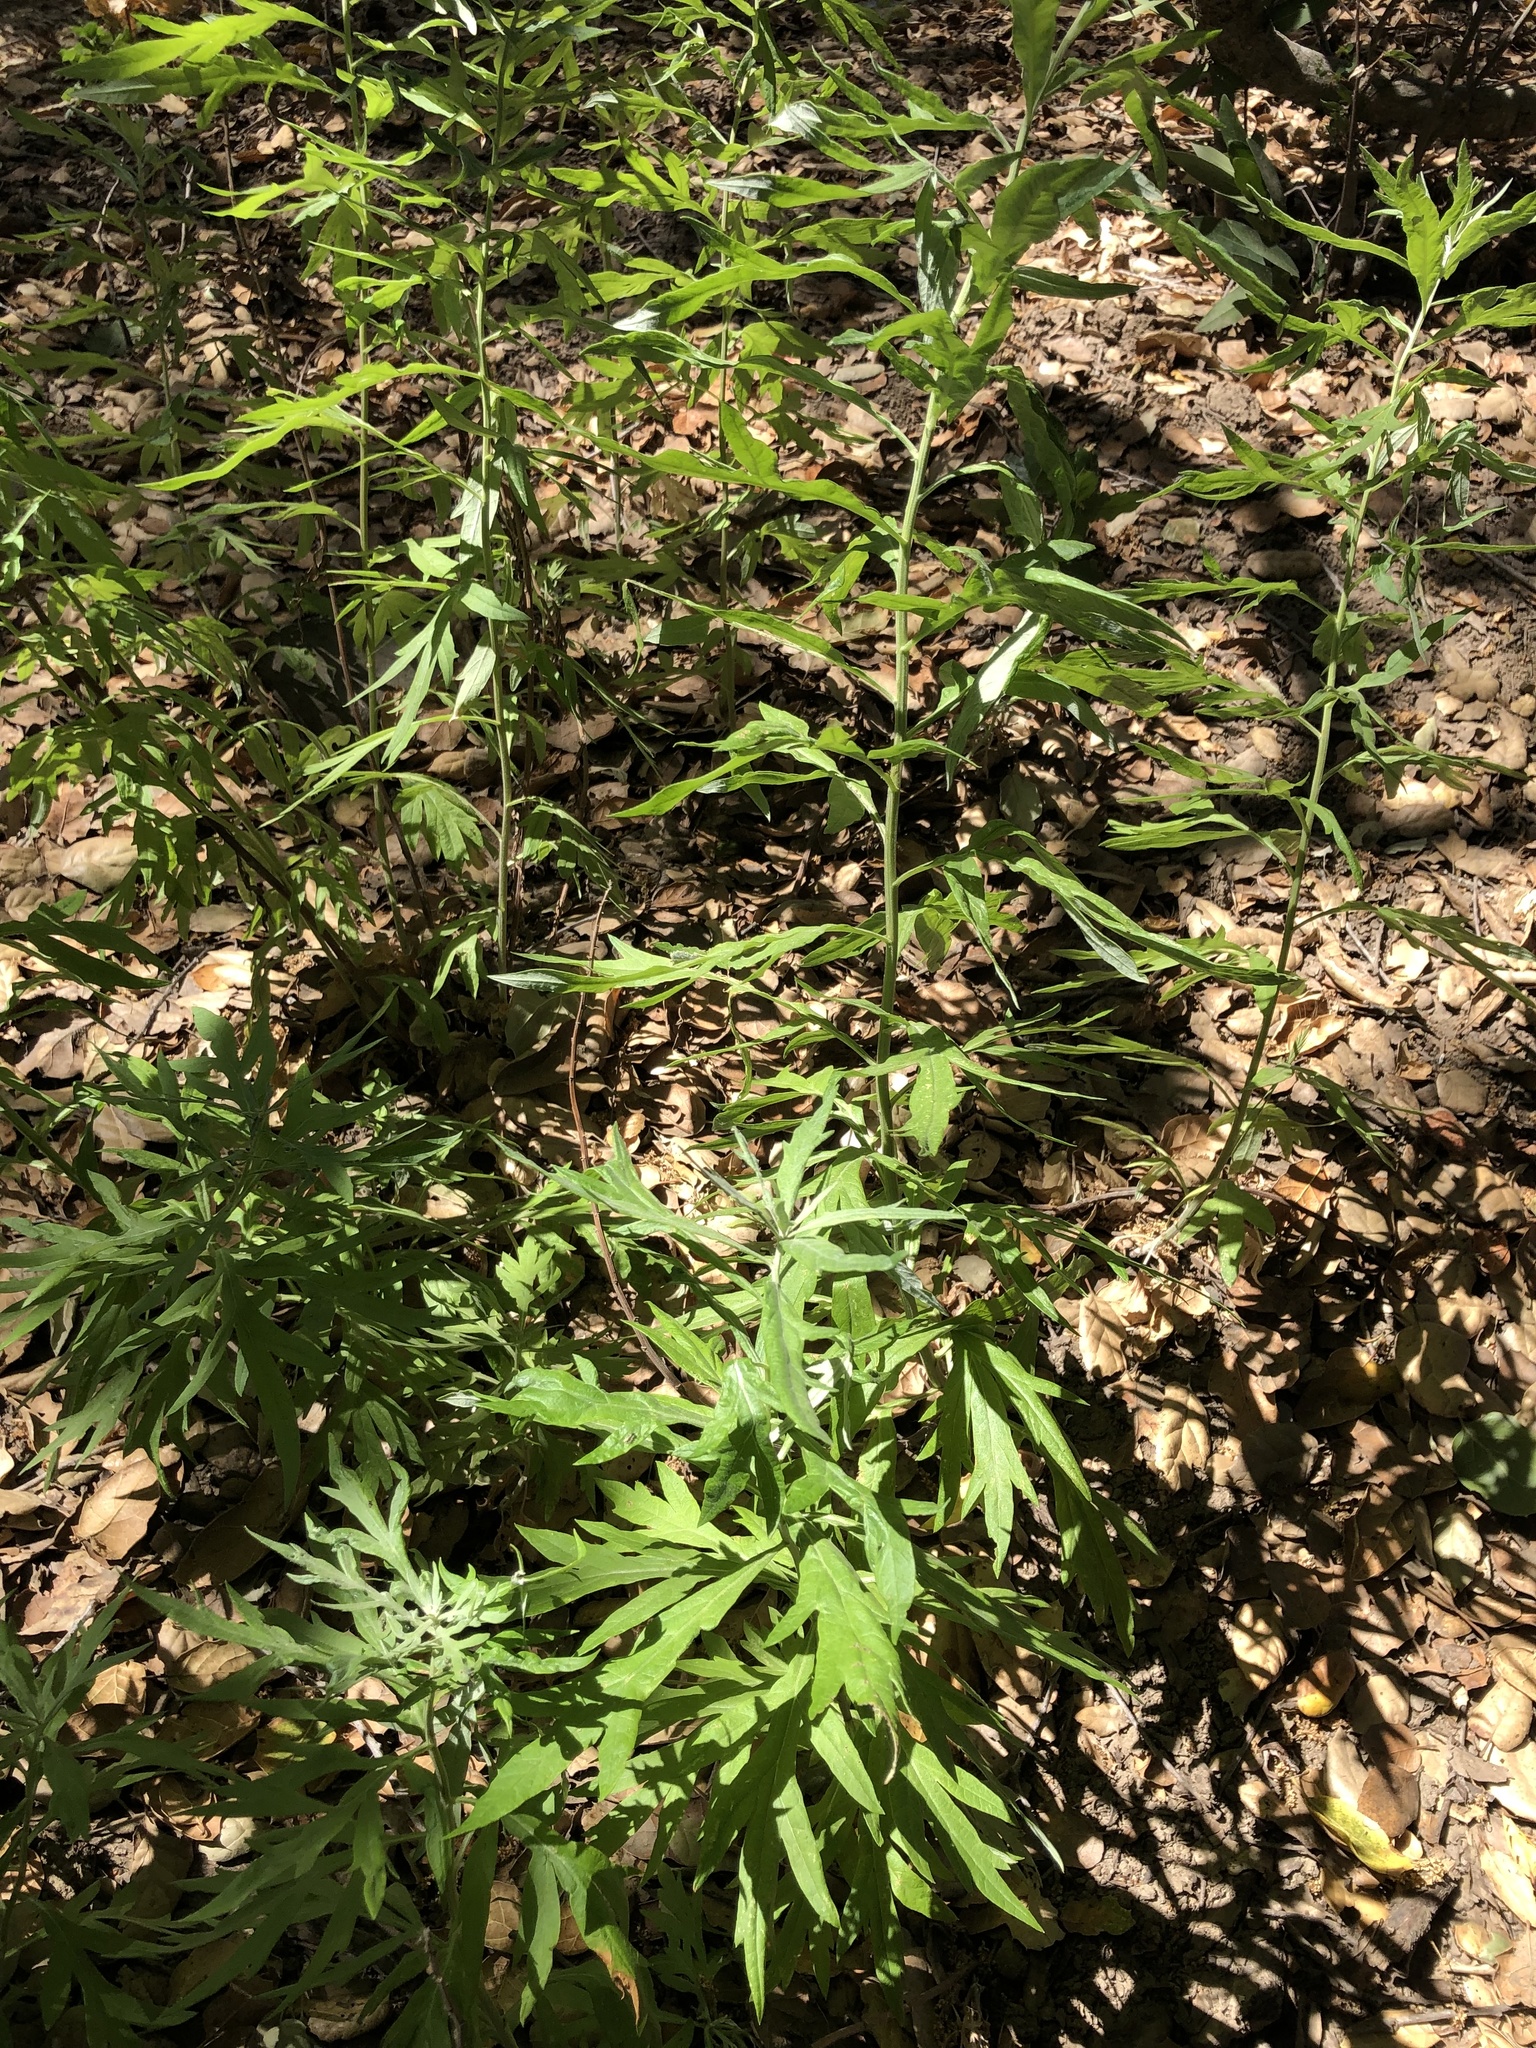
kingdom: Plantae
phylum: Tracheophyta
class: Magnoliopsida
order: Asterales
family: Asteraceae
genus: Artemisia
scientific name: Artemisia douglasiana
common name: Northwest mugwort
